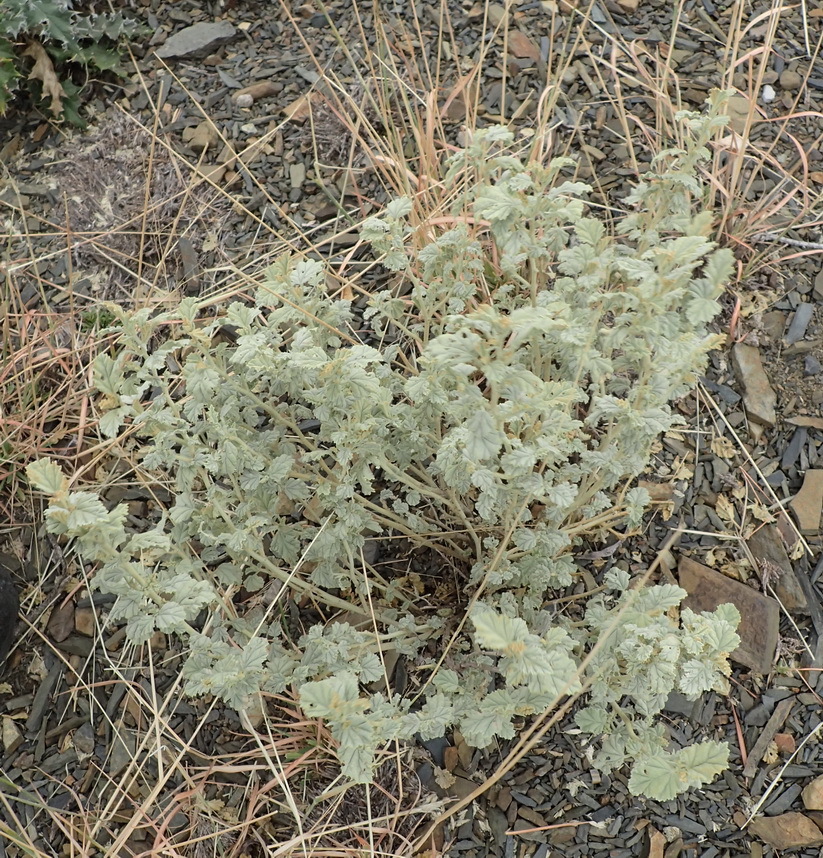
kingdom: Plantae
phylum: Tracheophyta
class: Magnoliopsida
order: Malvales
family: Malvaceae
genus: Hermannia
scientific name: Hermannia vestita
